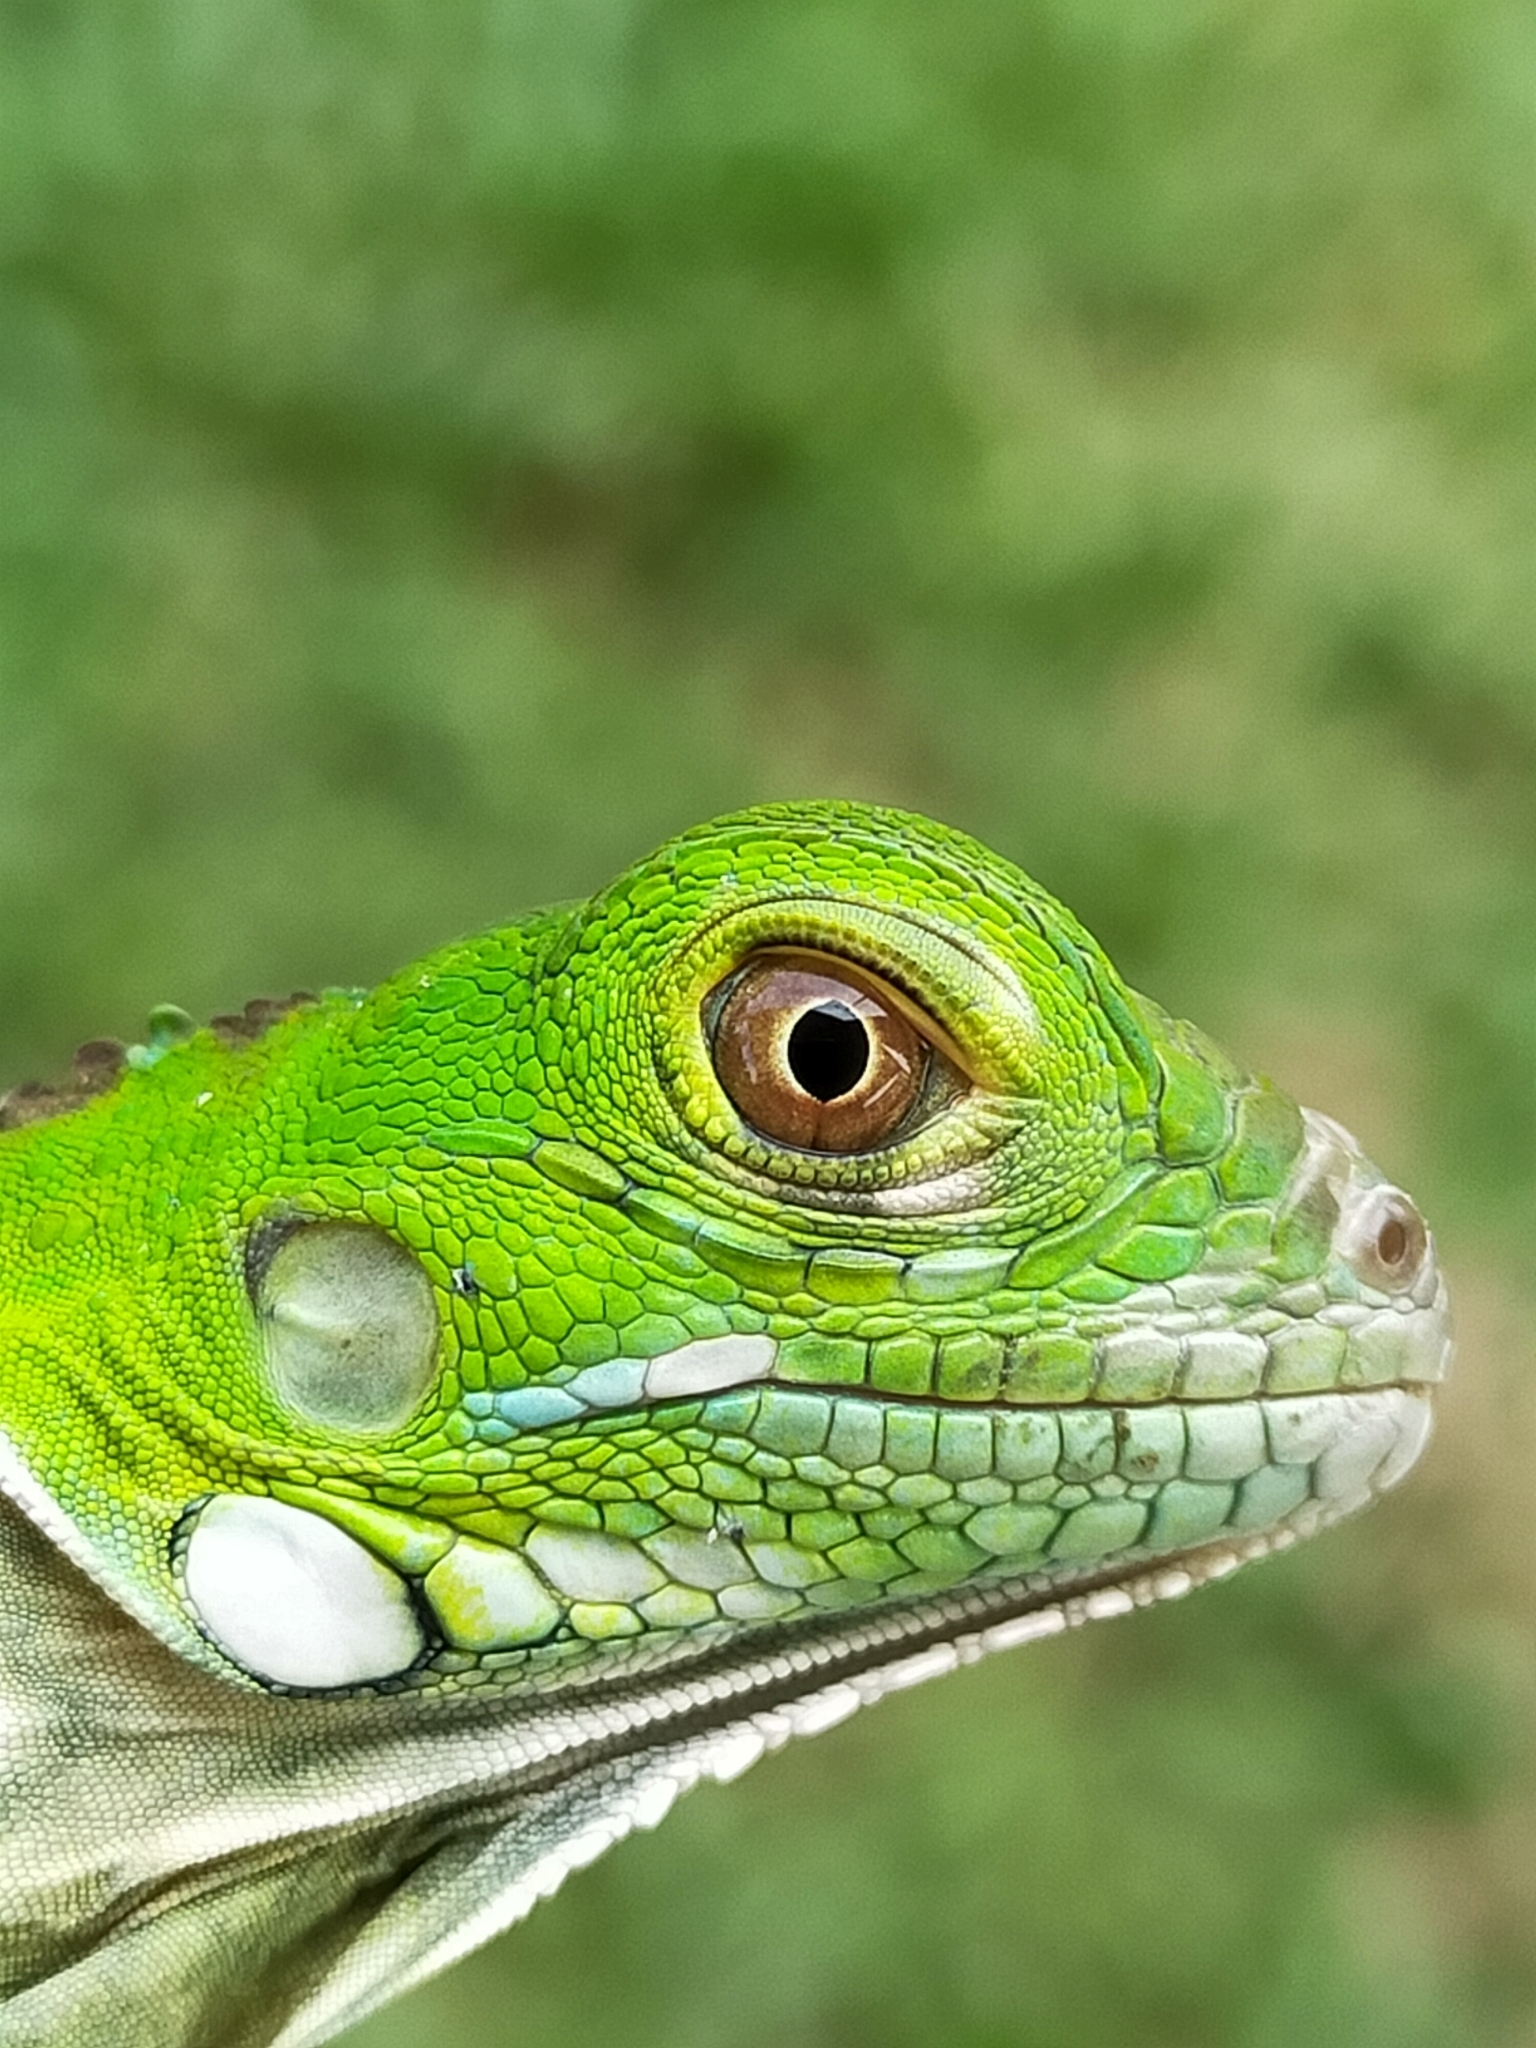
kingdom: Animalia
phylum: Chordata
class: Squamata
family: Iguanidae
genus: Iguana
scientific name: Iguana iguana
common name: Green iguana
